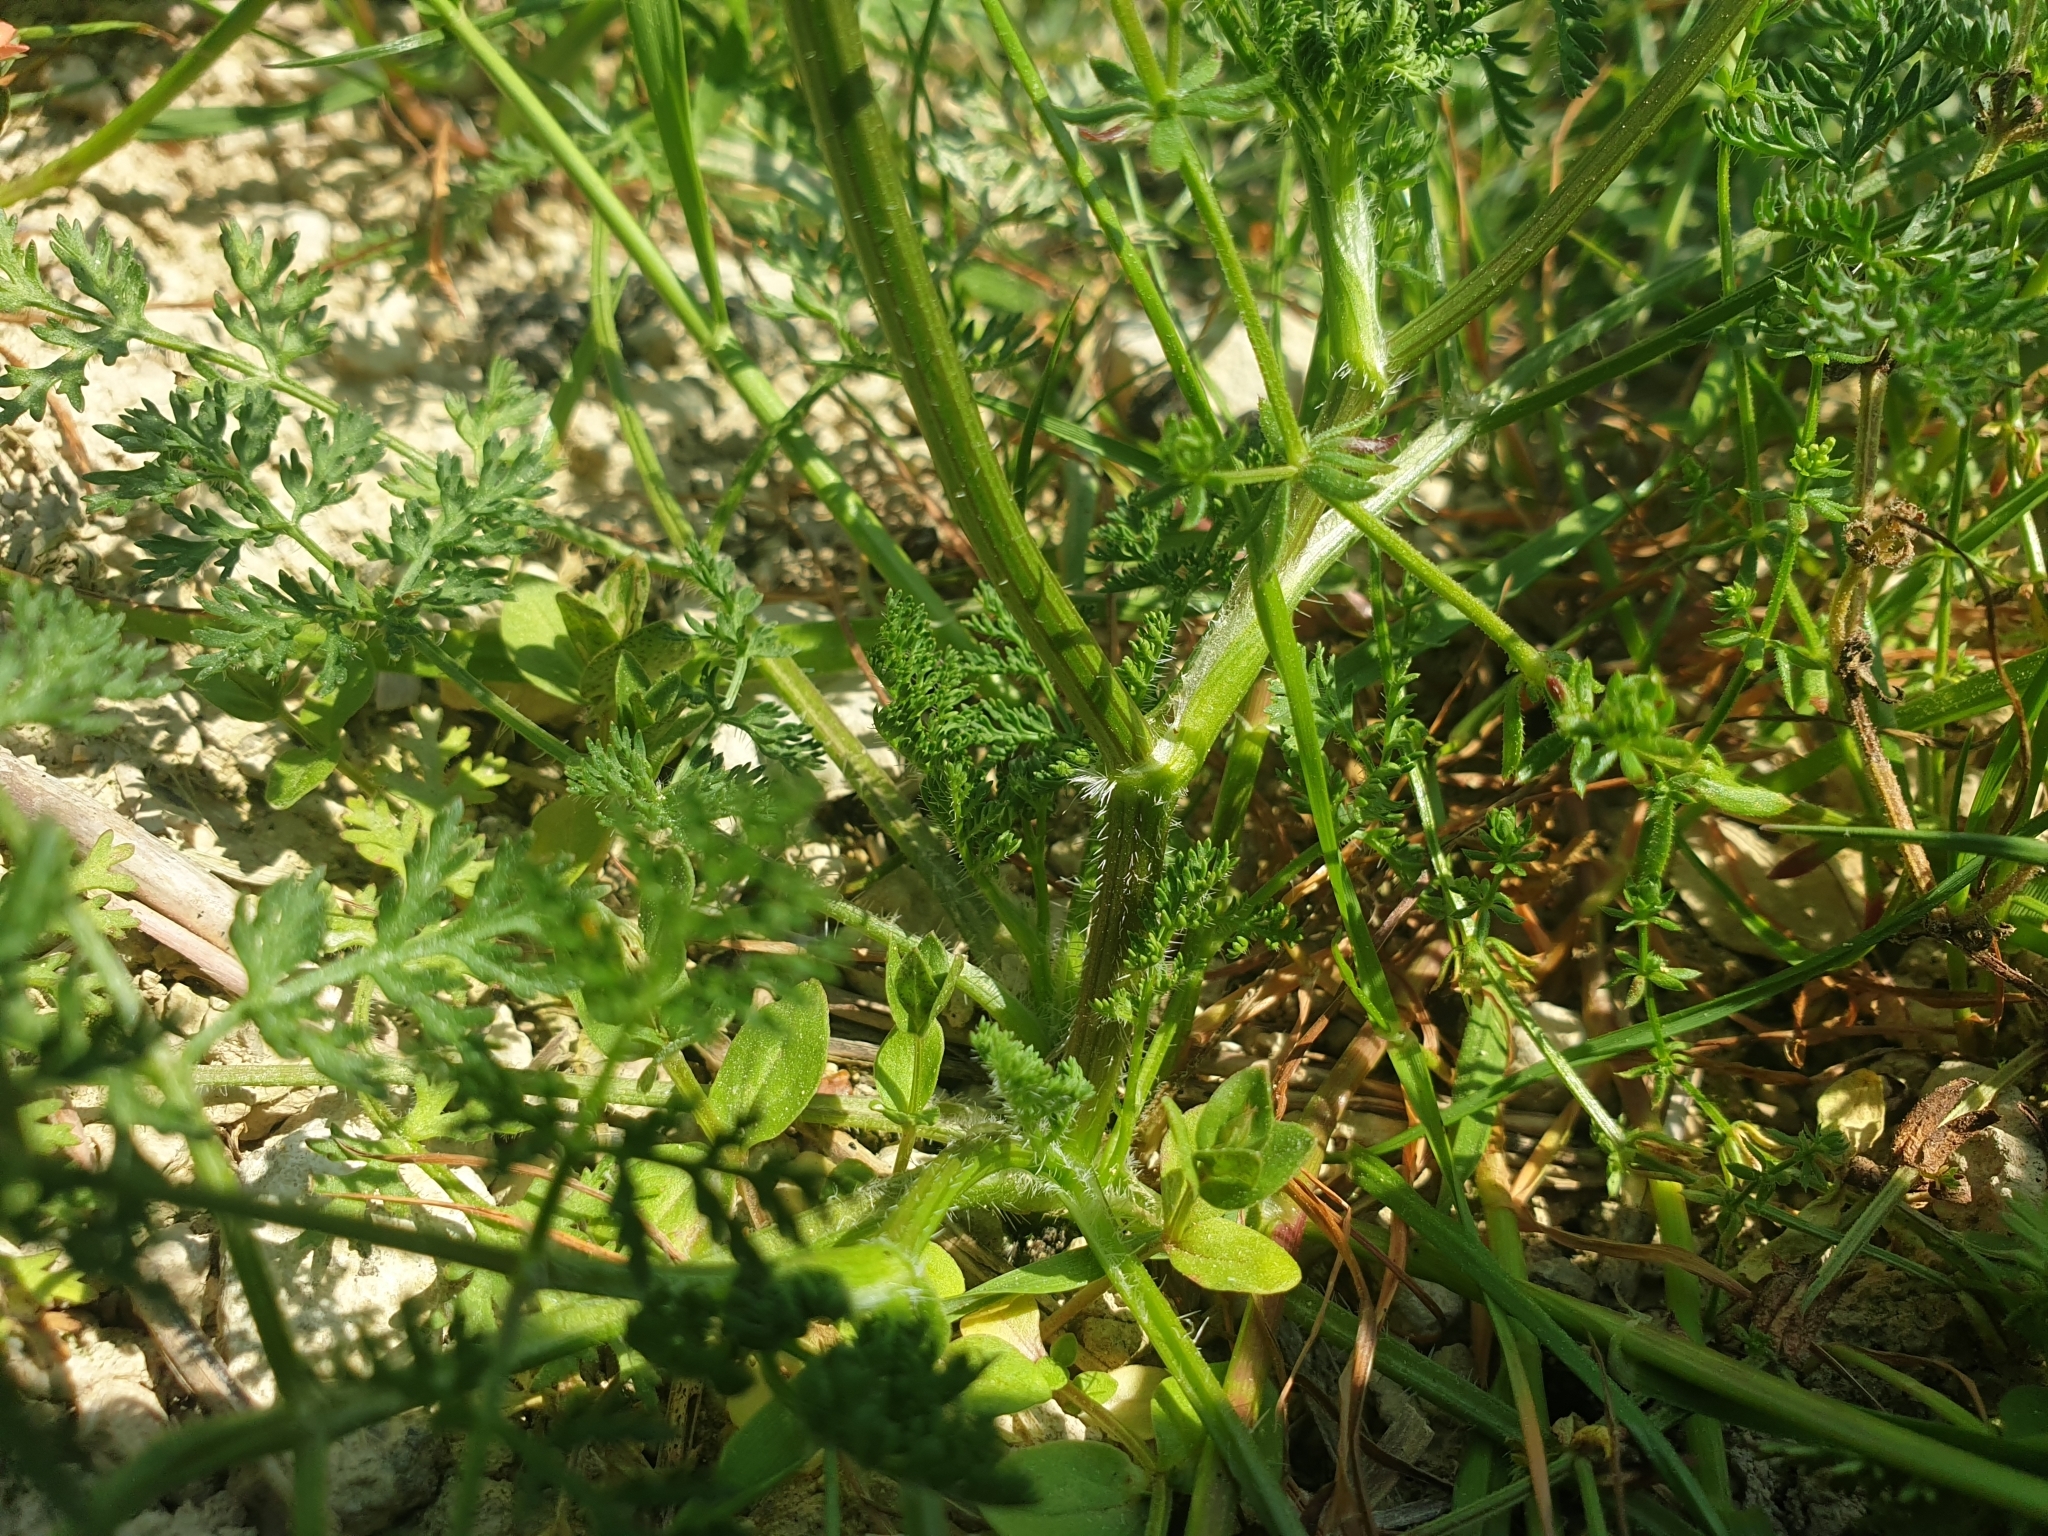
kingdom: Plantae
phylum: Tracheophyta
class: Magnoliopsida
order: Apiales
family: Apiaceae
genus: Caucalis
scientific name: Caucalis platycarpos
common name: Small bur-parsley
